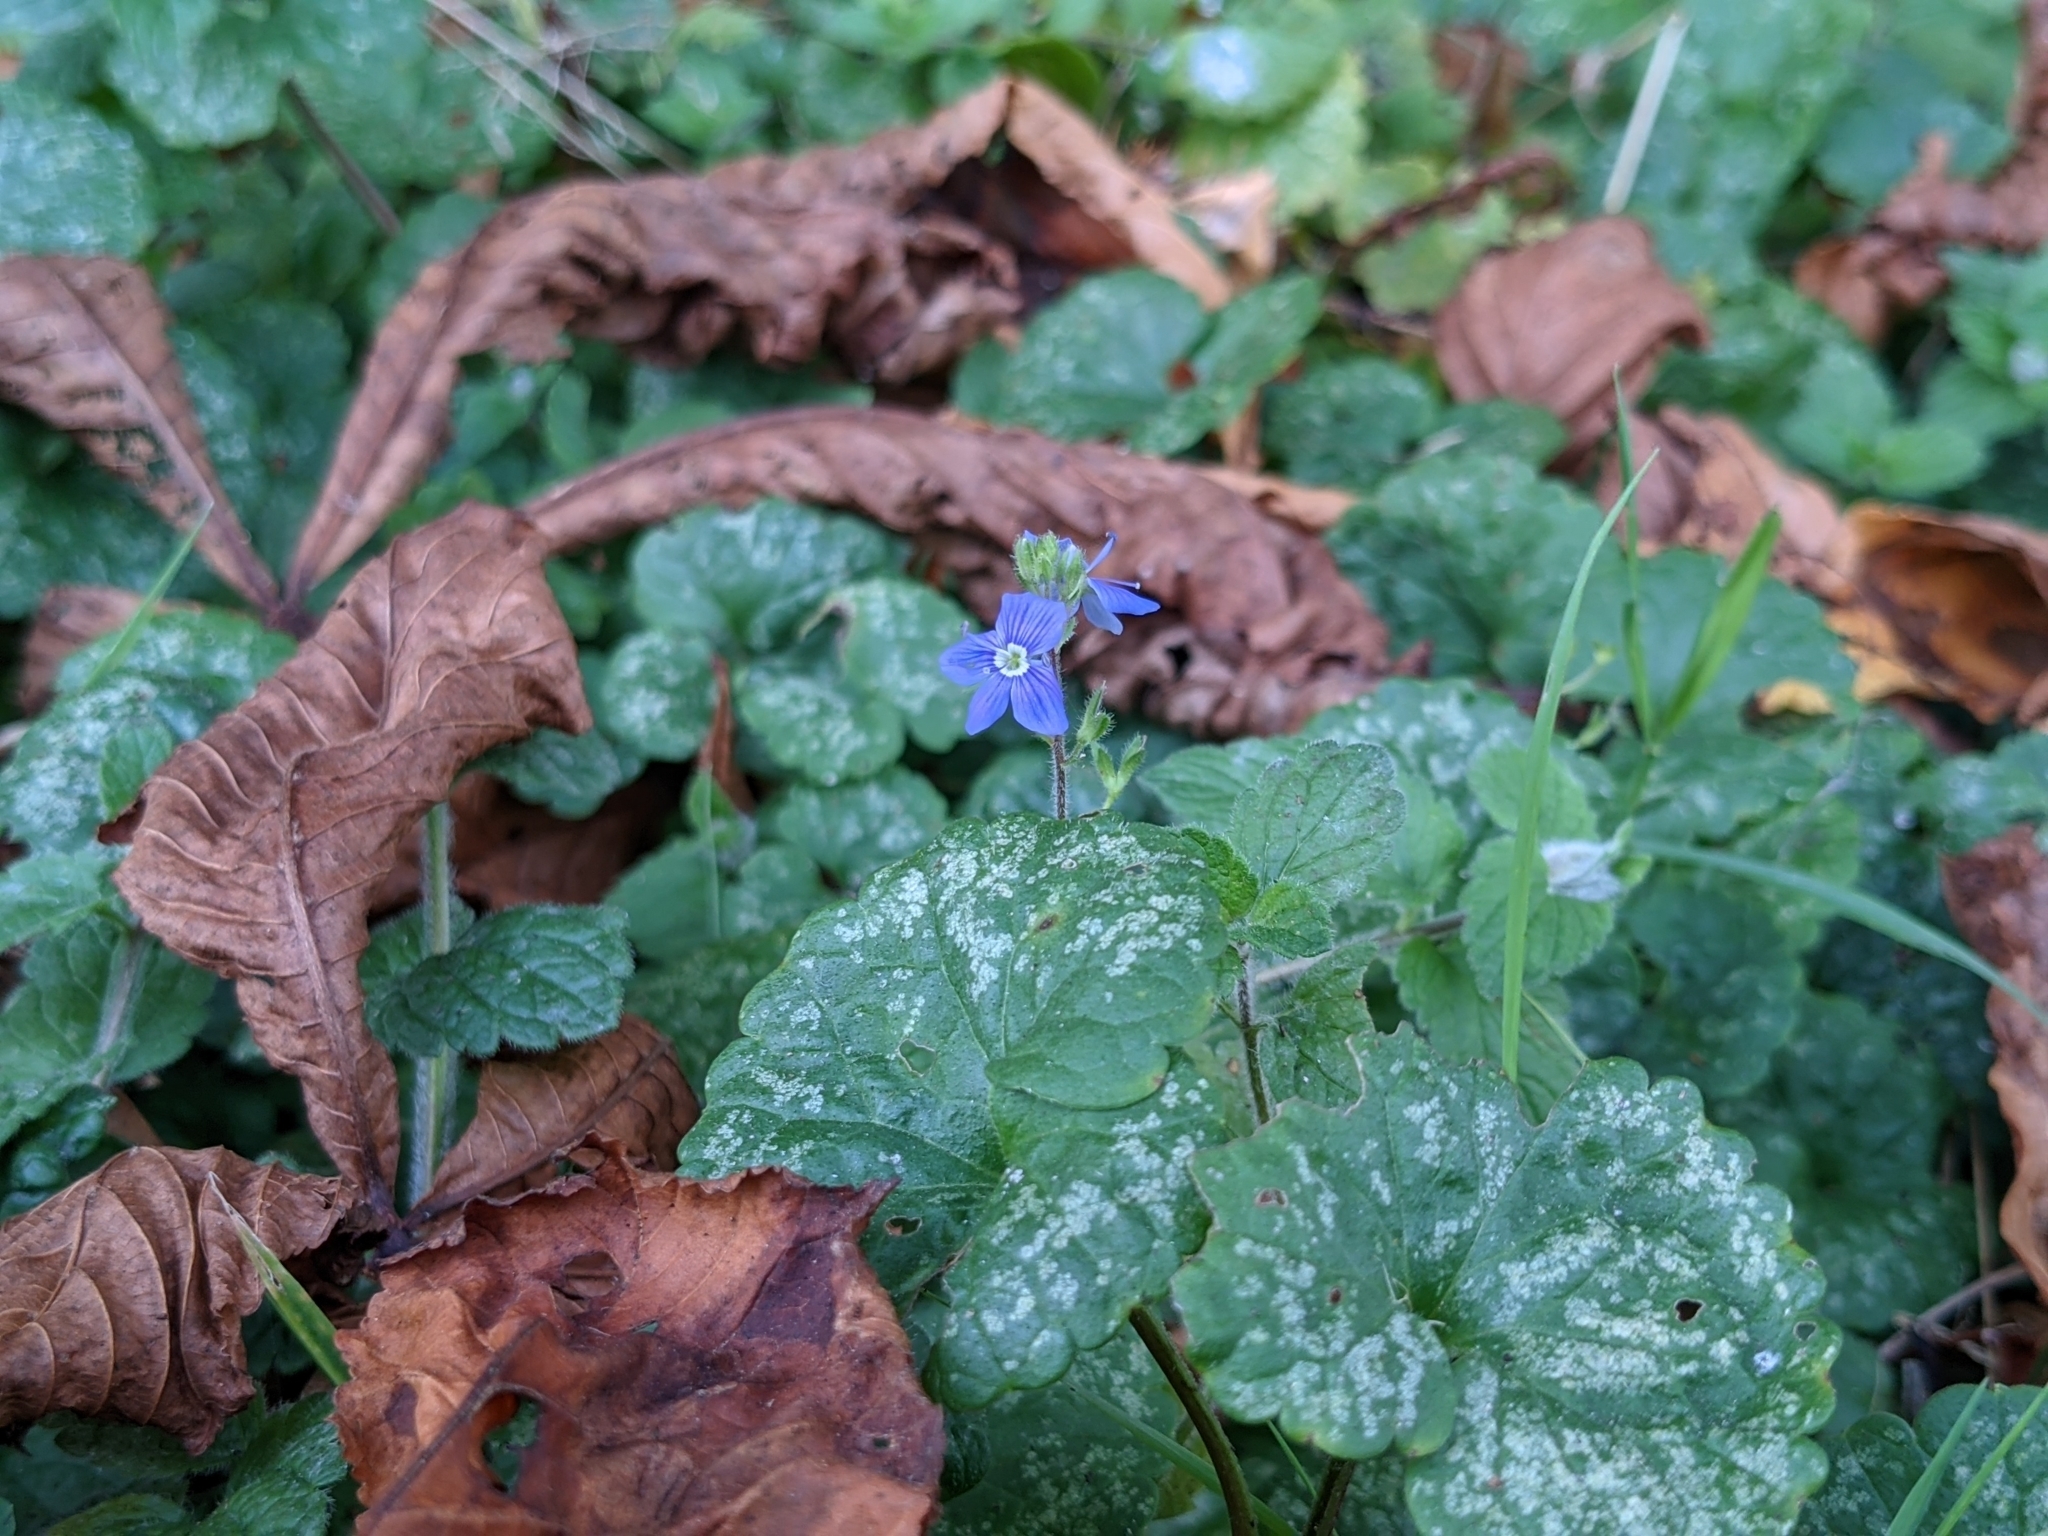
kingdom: Plantae
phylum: Tracheophyta
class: Magnoliopsida
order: Lamiales
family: Plantaginaceae
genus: Veronica
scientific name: Veronica chamaedrys
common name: Germander speedwell
